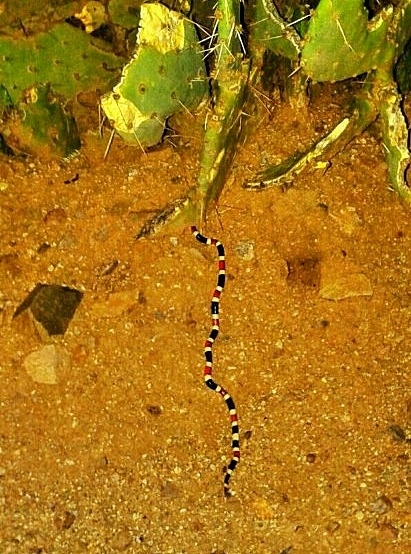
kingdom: Animalia
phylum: Chordata
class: Squamata
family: Elapidae
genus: Micruroides
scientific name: Micruroides euryxanthus
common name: Western coral snake
